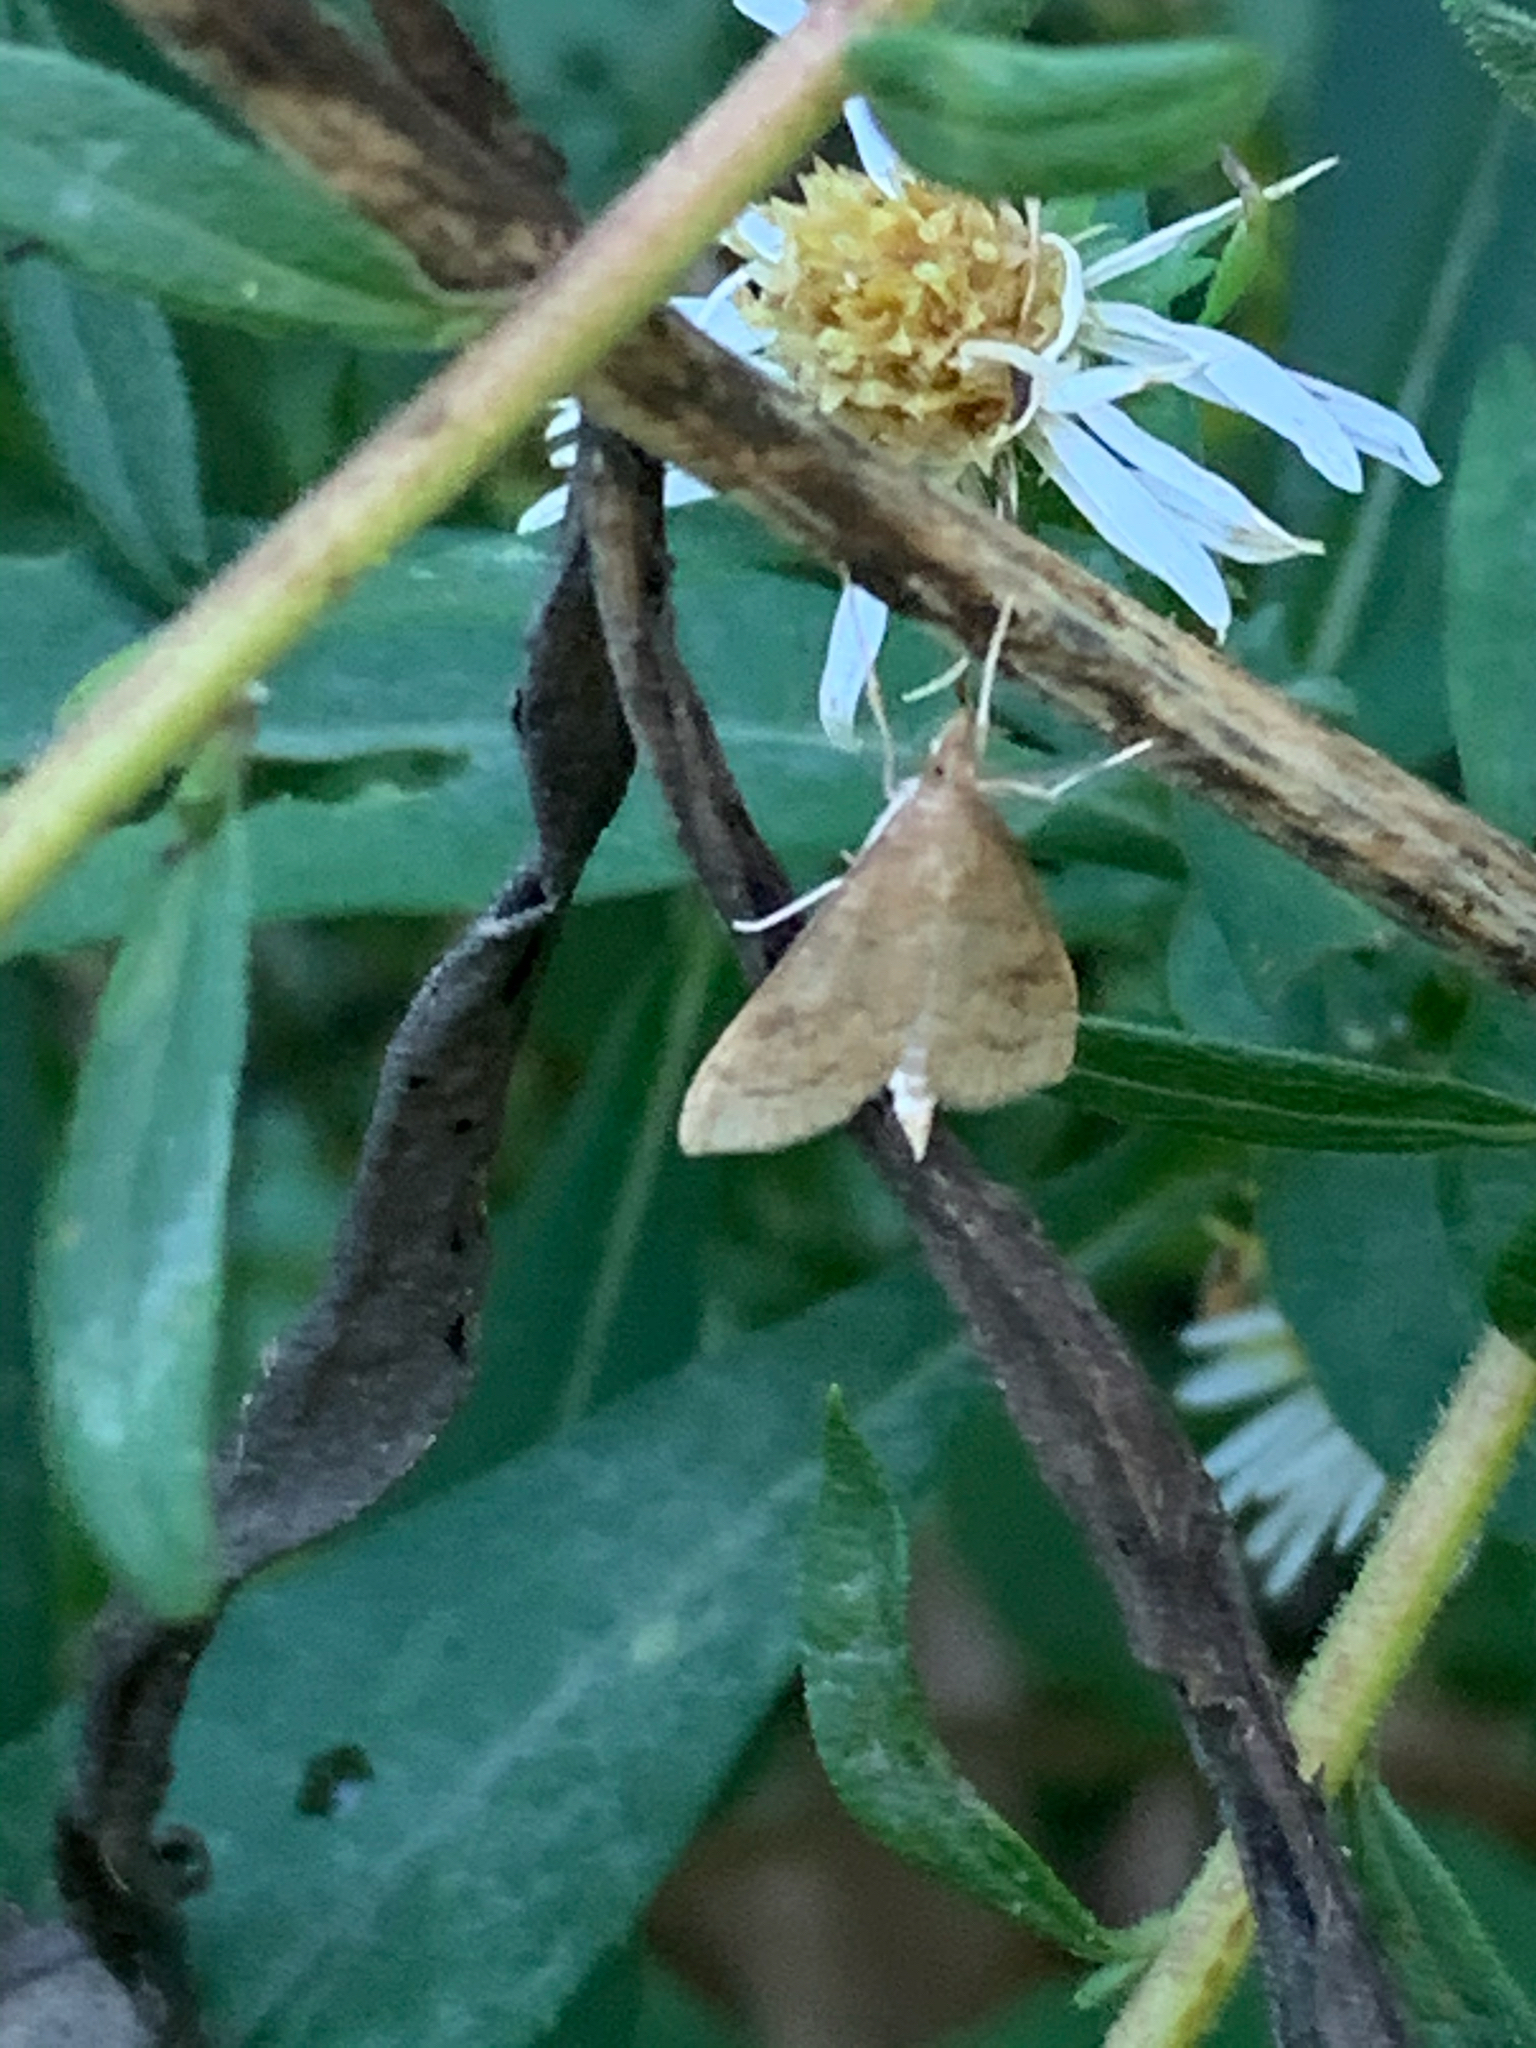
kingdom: Animalia
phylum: Arthropoda
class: Insecta
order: Lepidoptera
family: Crambidae
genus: Udea
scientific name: Udea rubigalis
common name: Celery leaftier moth
